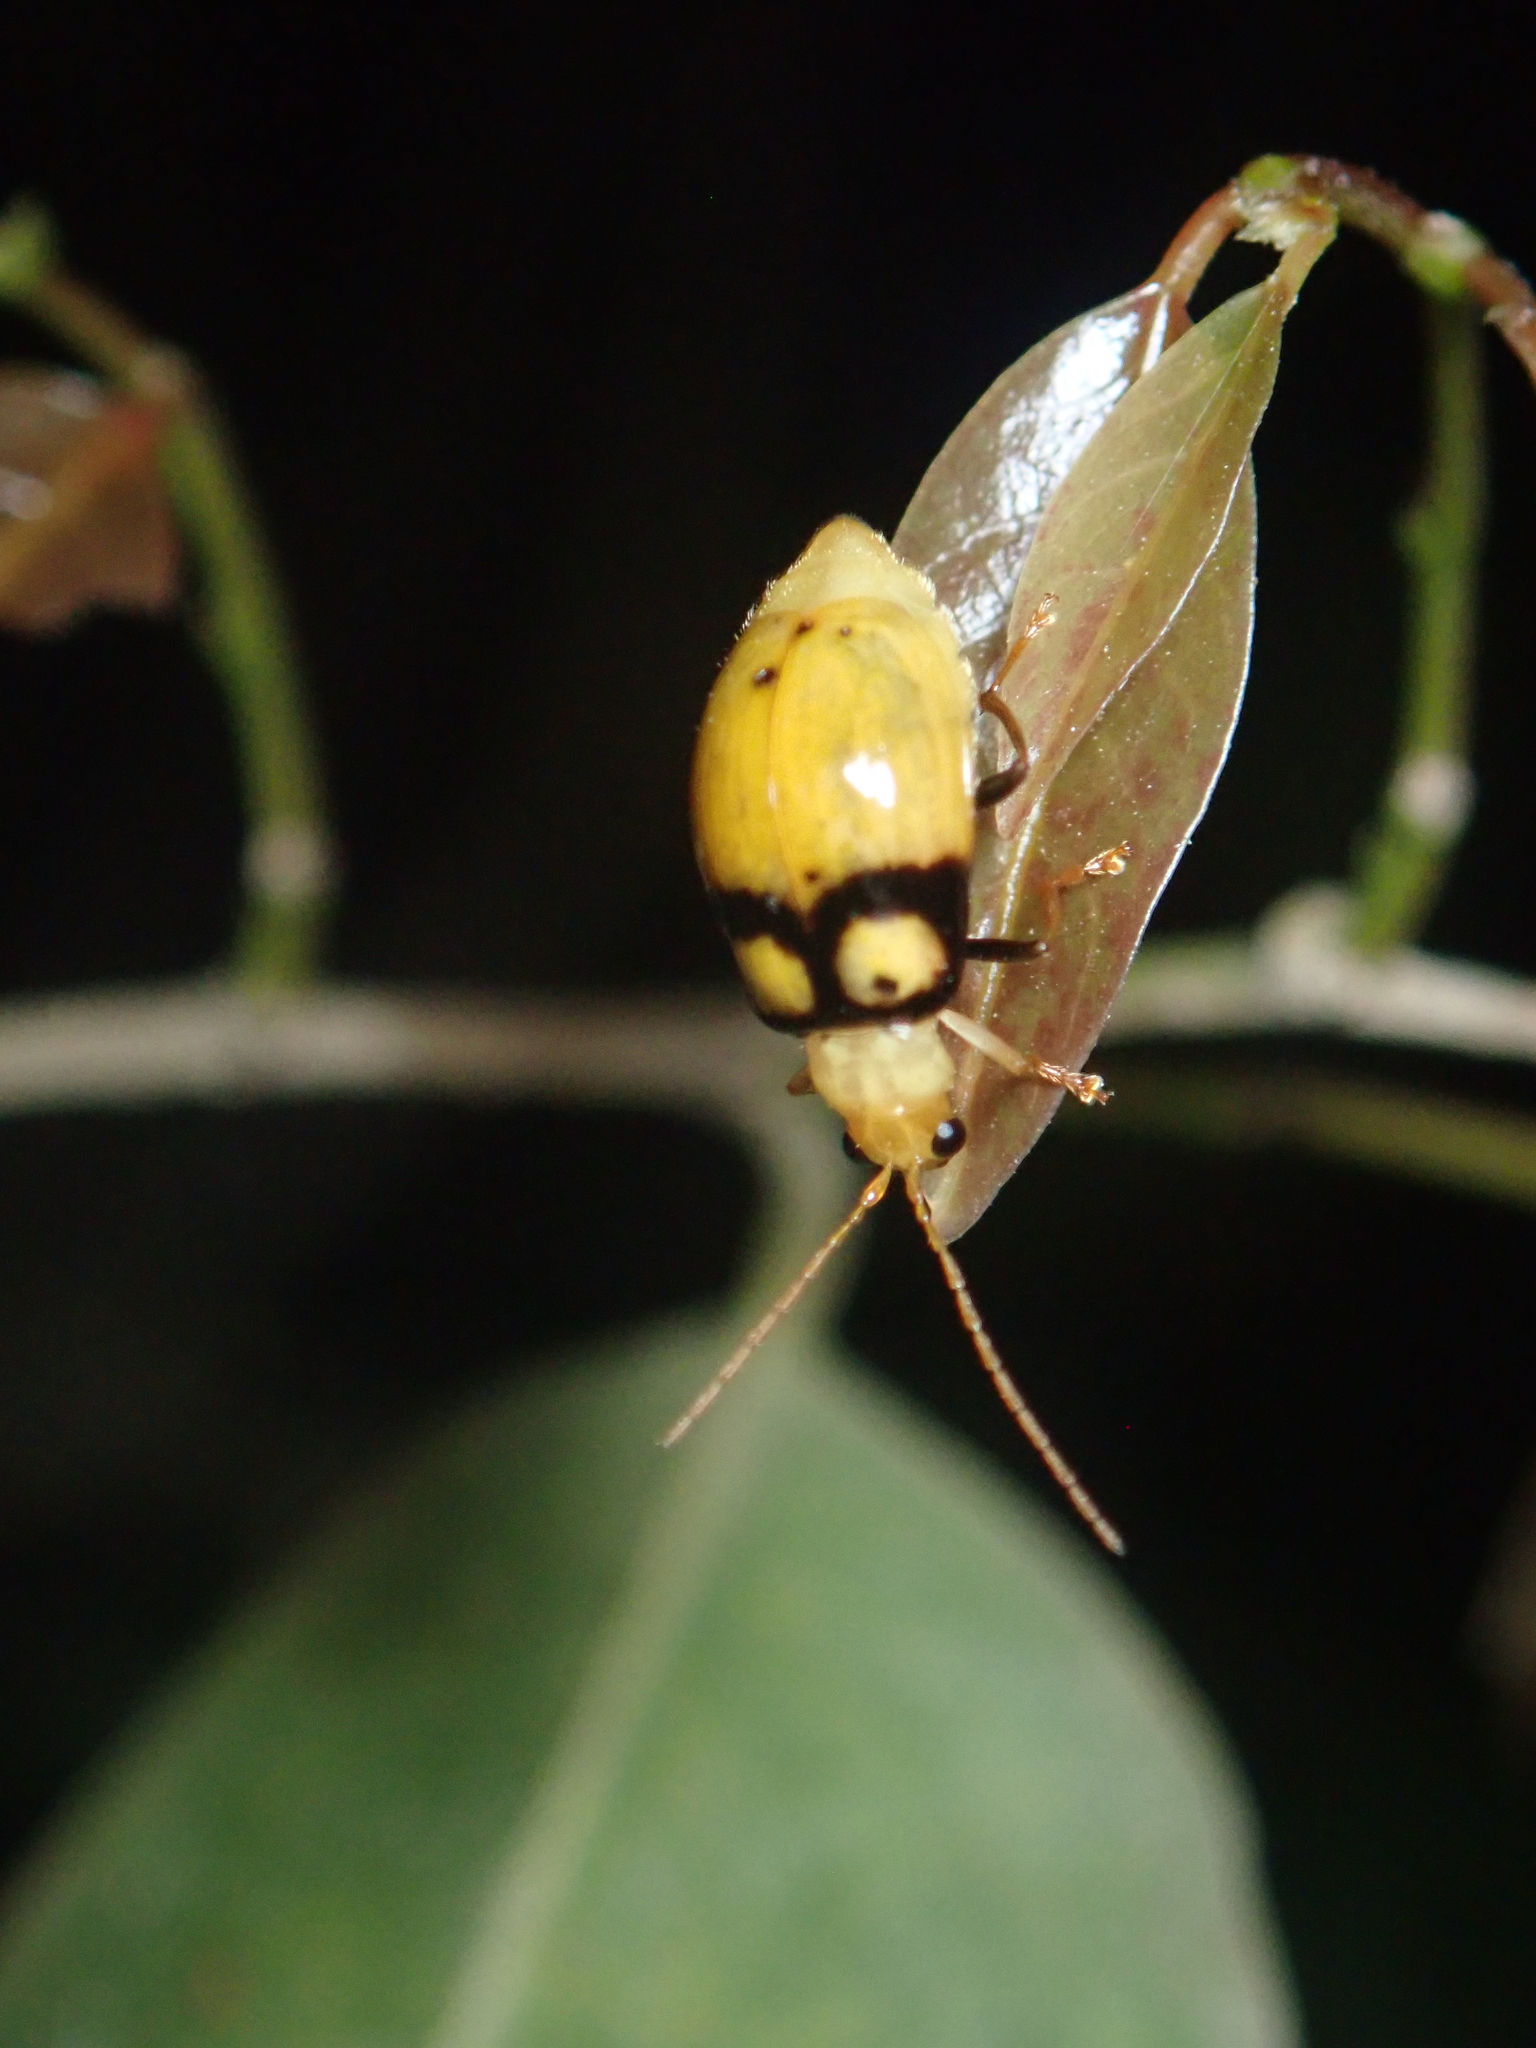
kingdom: Animalia
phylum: Arthropoda
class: Insecta
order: Coleoptera
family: Chrysomelidae
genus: Monolepta
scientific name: Monolepta
